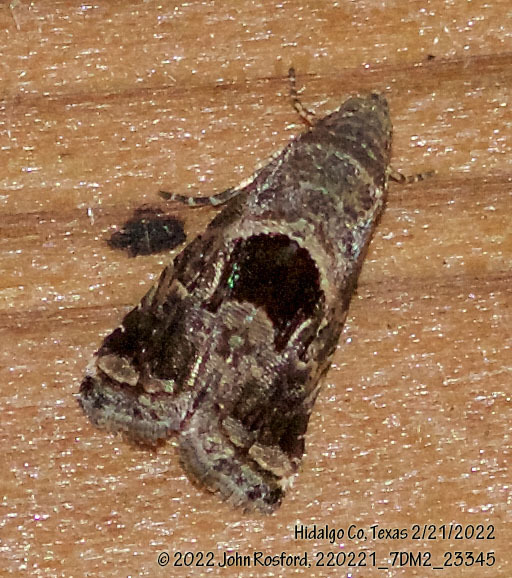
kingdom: Animalia
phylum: Arthropoda
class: Insecta
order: Lepidoptera
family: Noctuidae
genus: Tripudia
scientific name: Tripudia quadrifera
